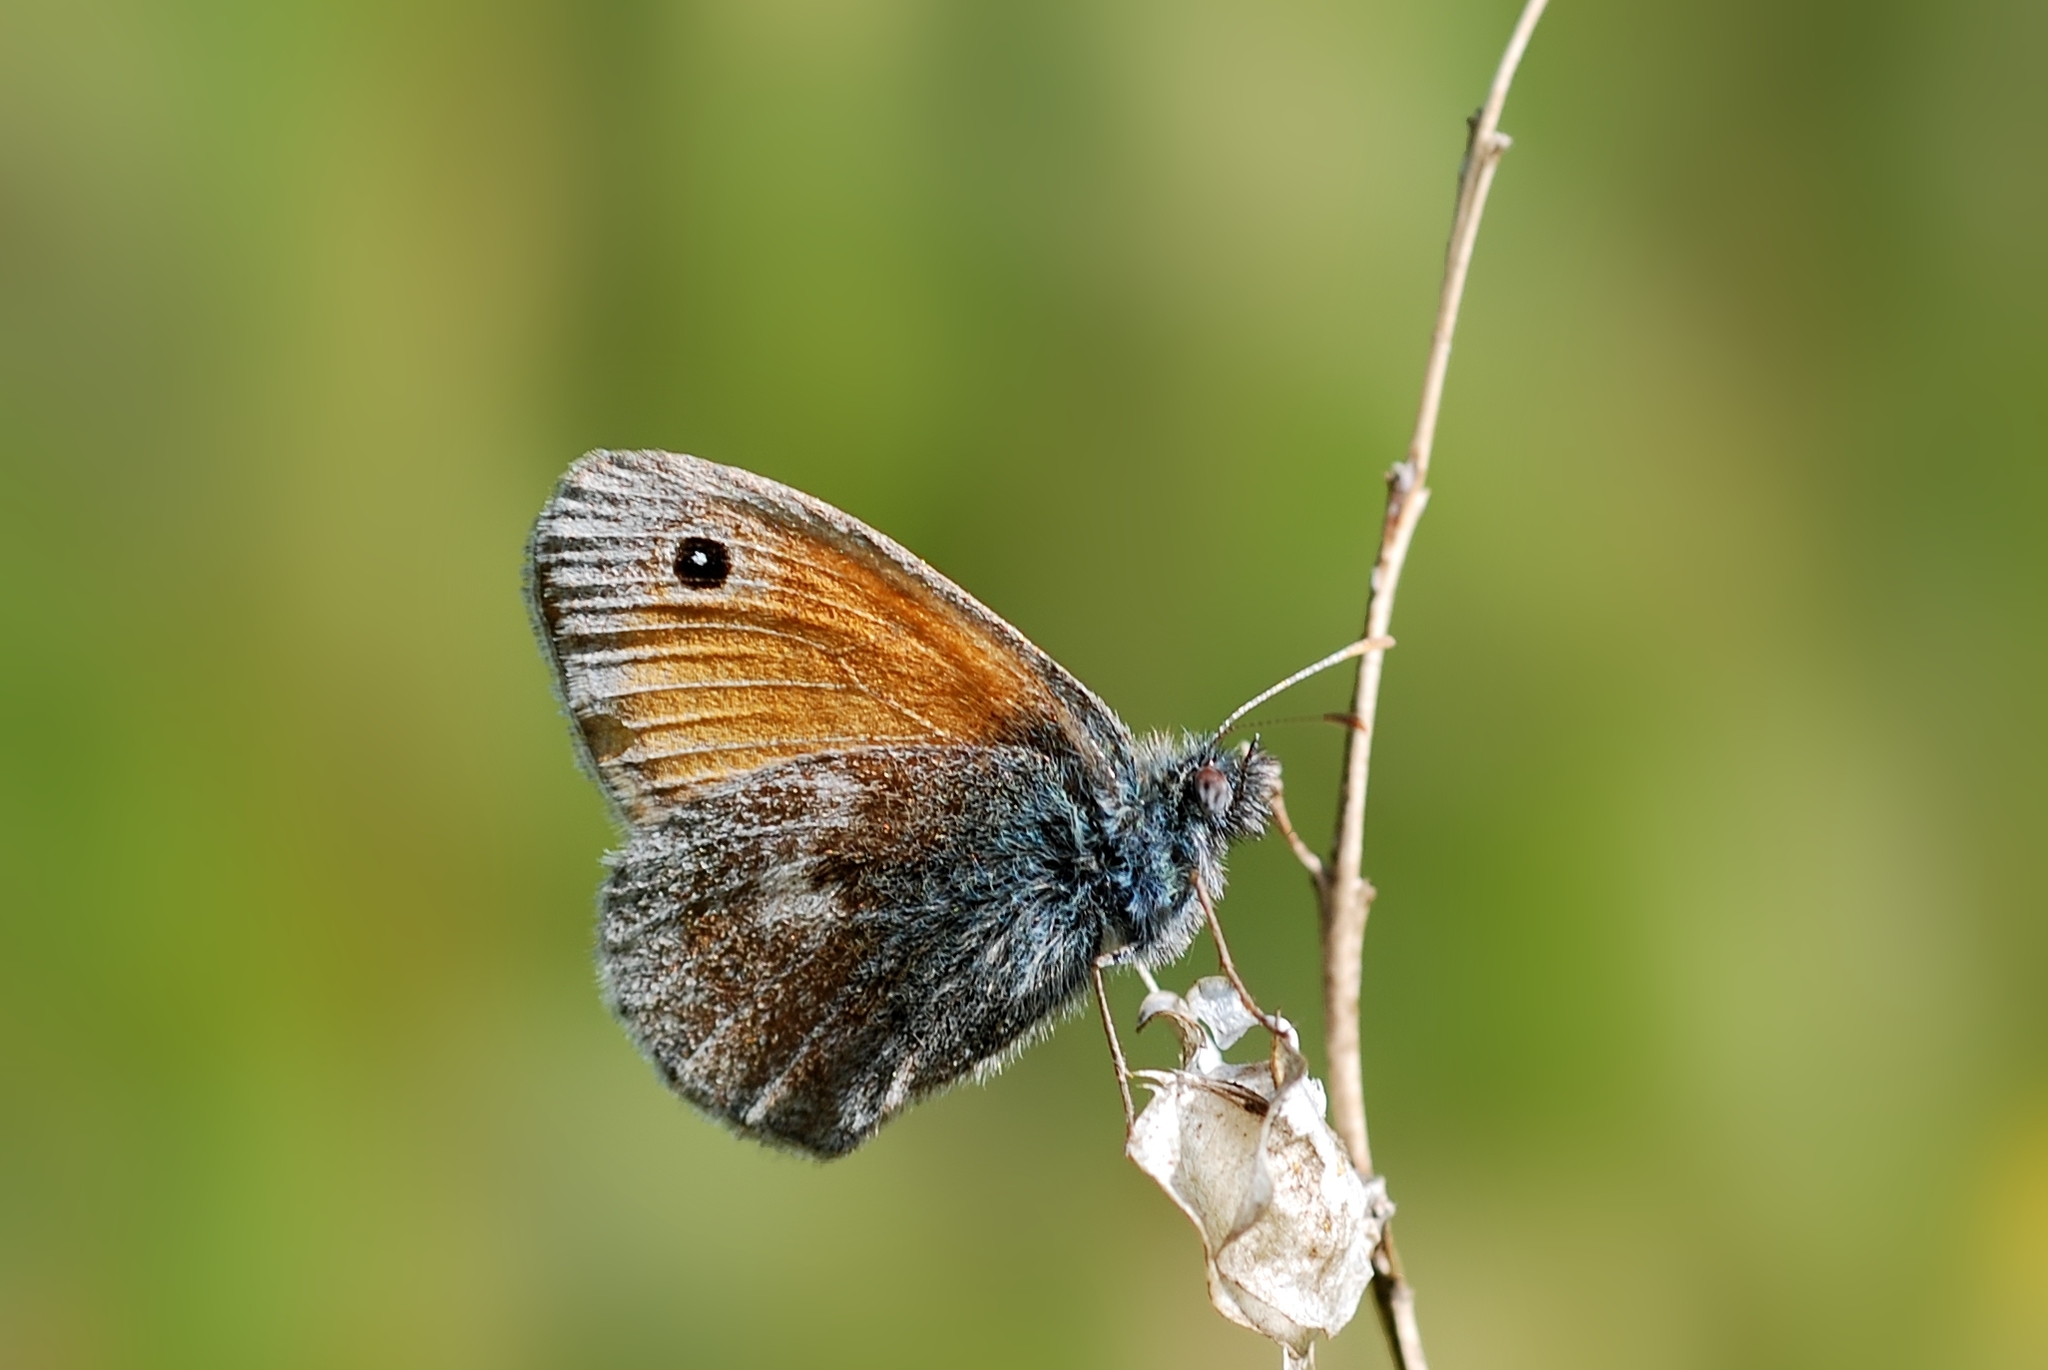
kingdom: Animalia
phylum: Arthropoda
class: Insecta
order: Lepidoptera
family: Nymphalidae
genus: Coenonympha
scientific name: Coenonympha pamphilus
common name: Small heath
